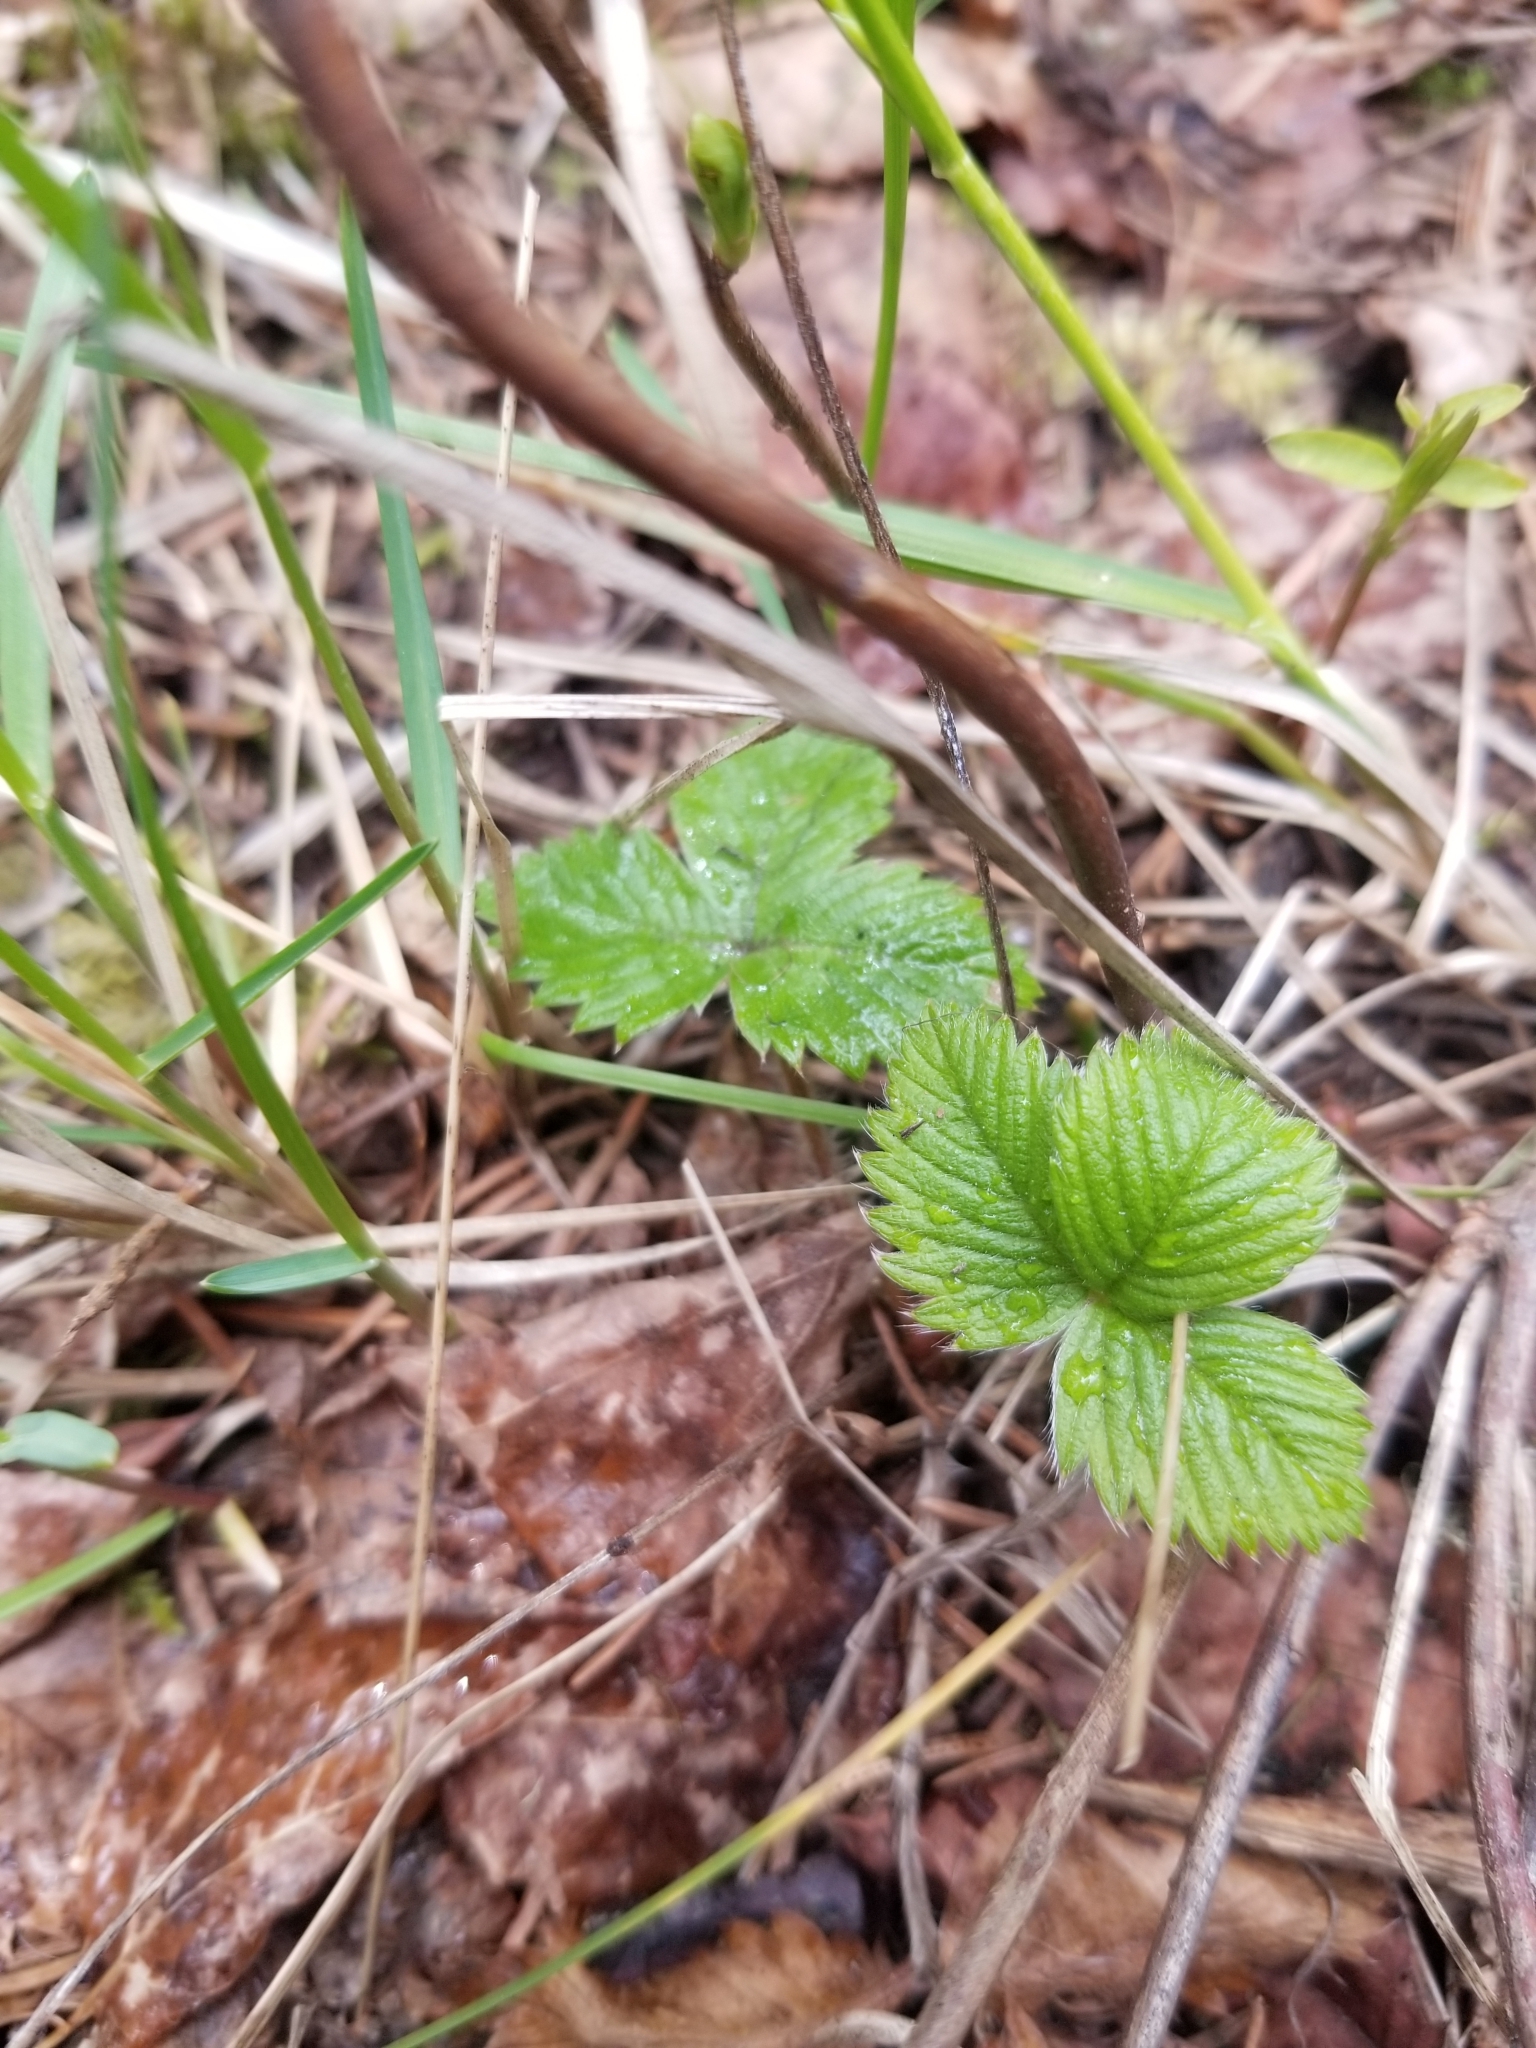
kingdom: Plantae
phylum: Tracheophyta
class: Magnoliopsida
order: Rosales
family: Rosaceae
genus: Fragaria
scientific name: Fragaria vesca
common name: Wild strawberry
